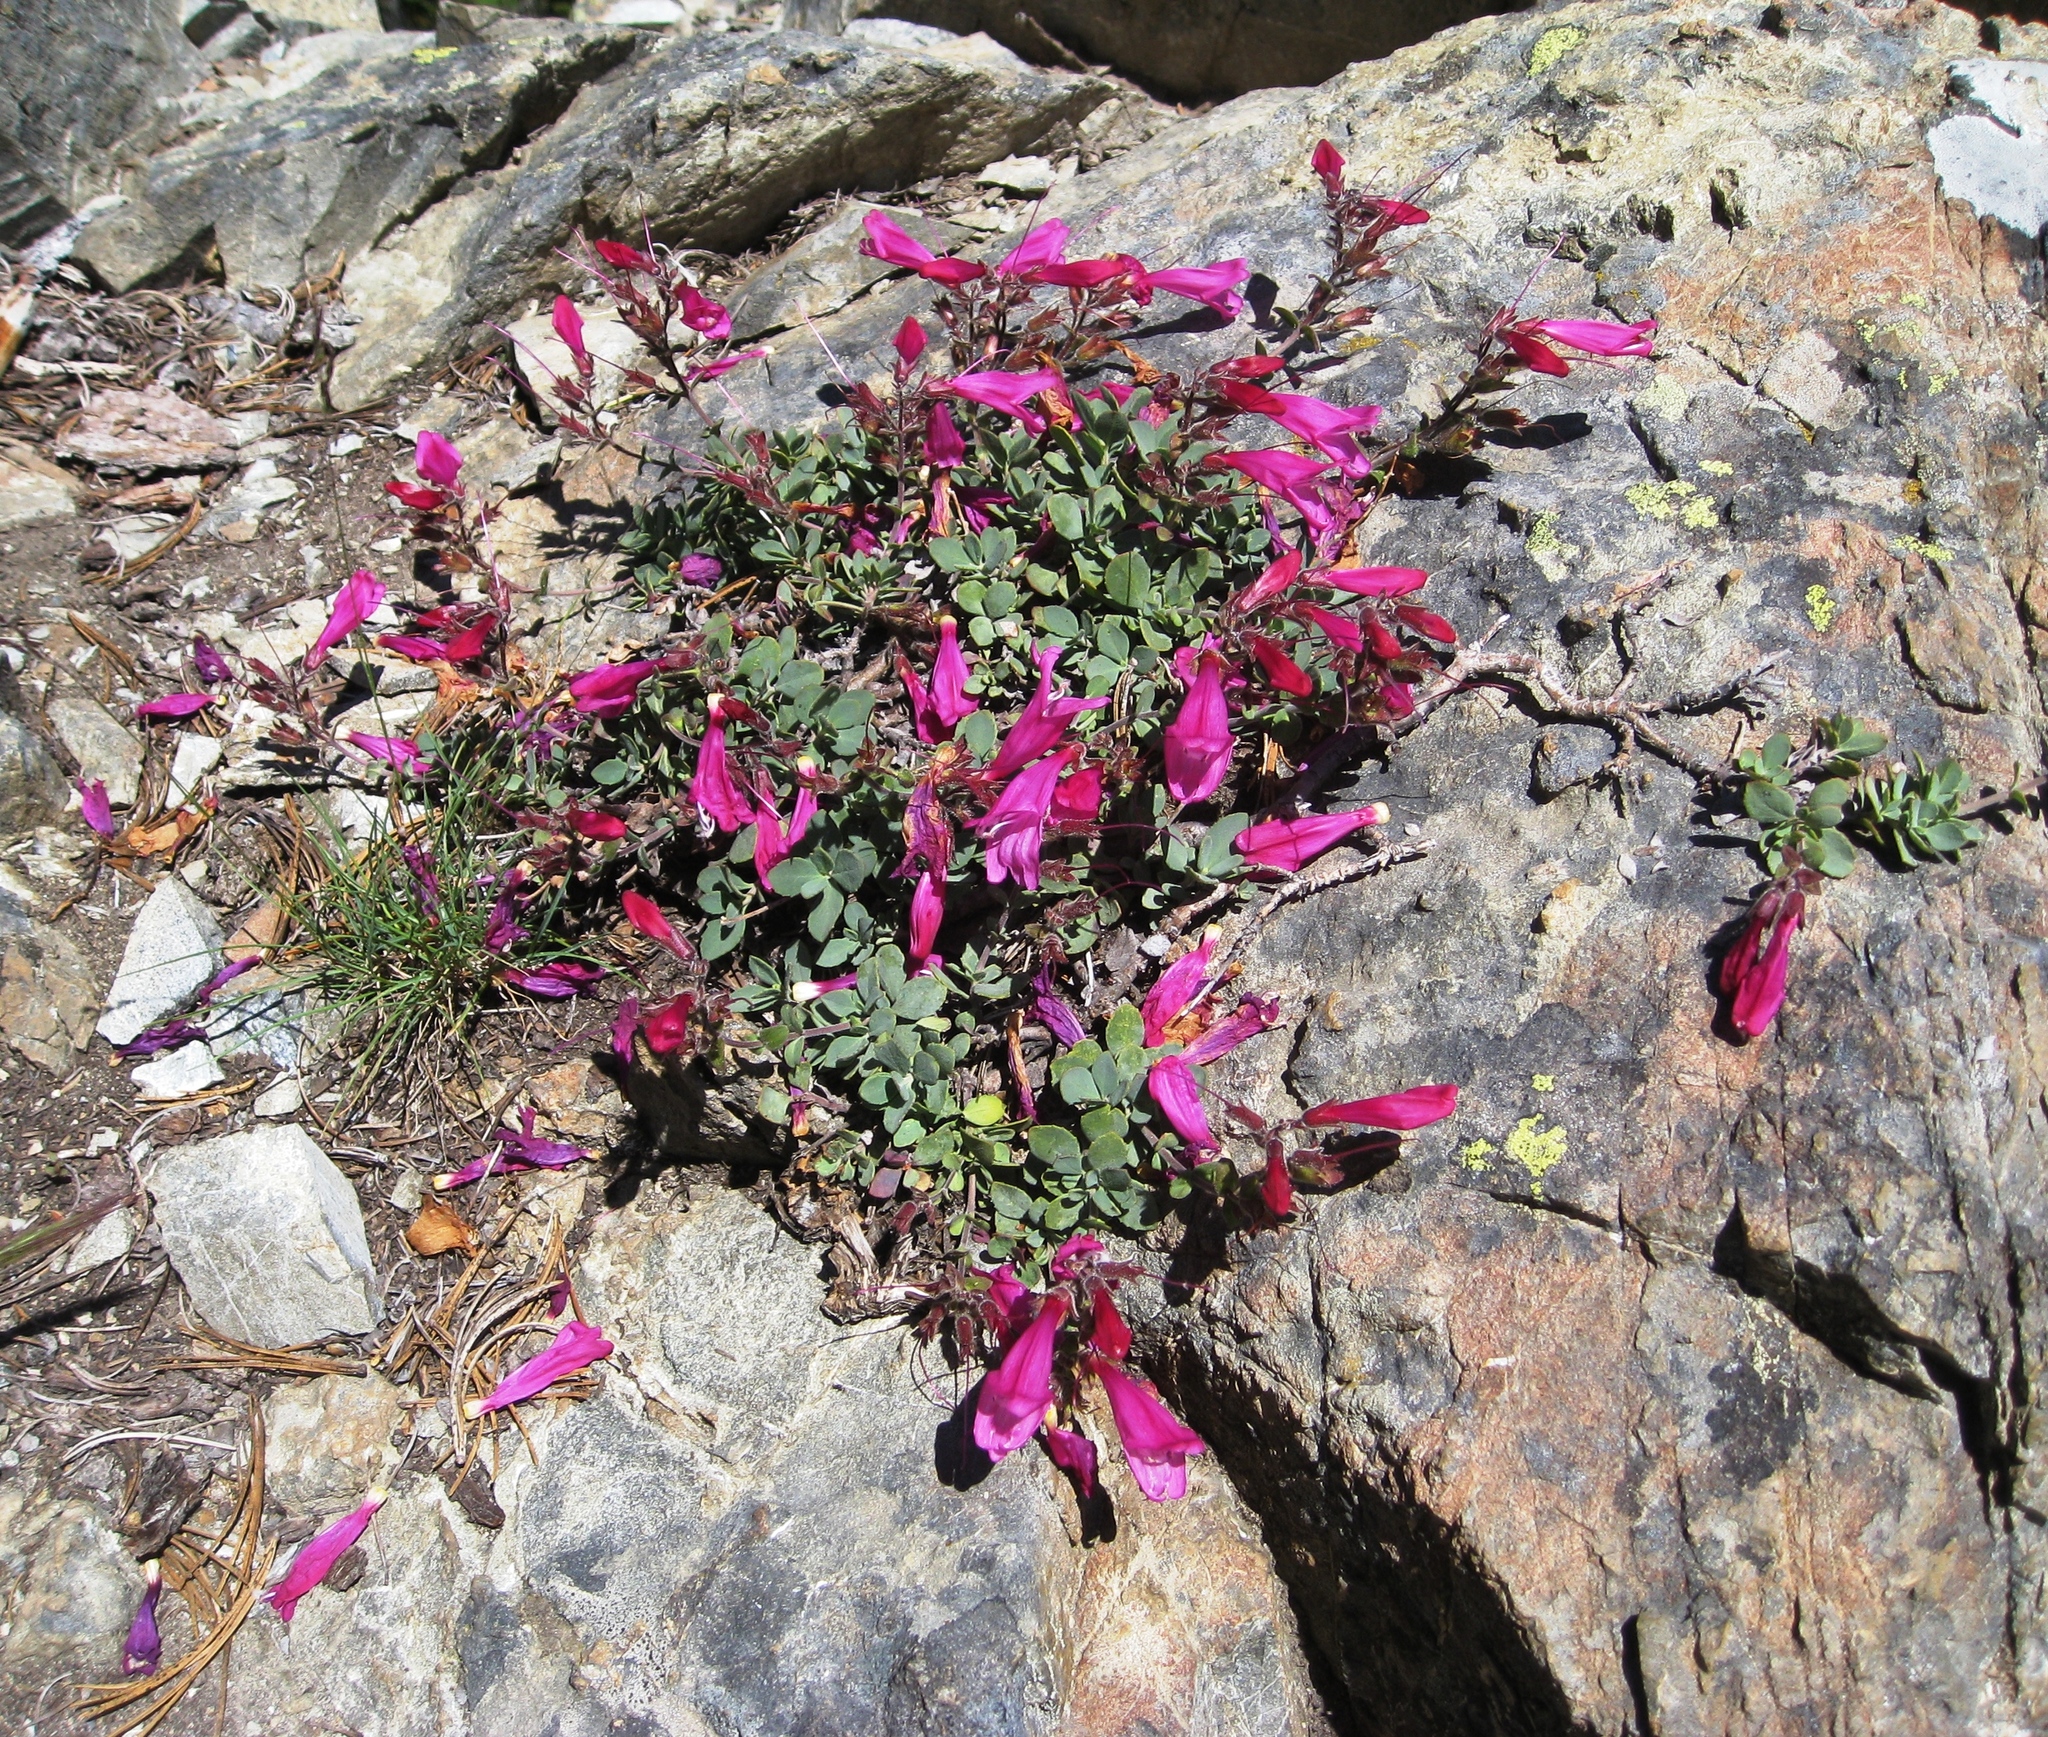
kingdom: Plantae
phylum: Tracheophyta
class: Magnoliopsida
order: Lamiales
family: Plantaginaceae
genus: Penstemon
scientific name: Penstemon rupicola
